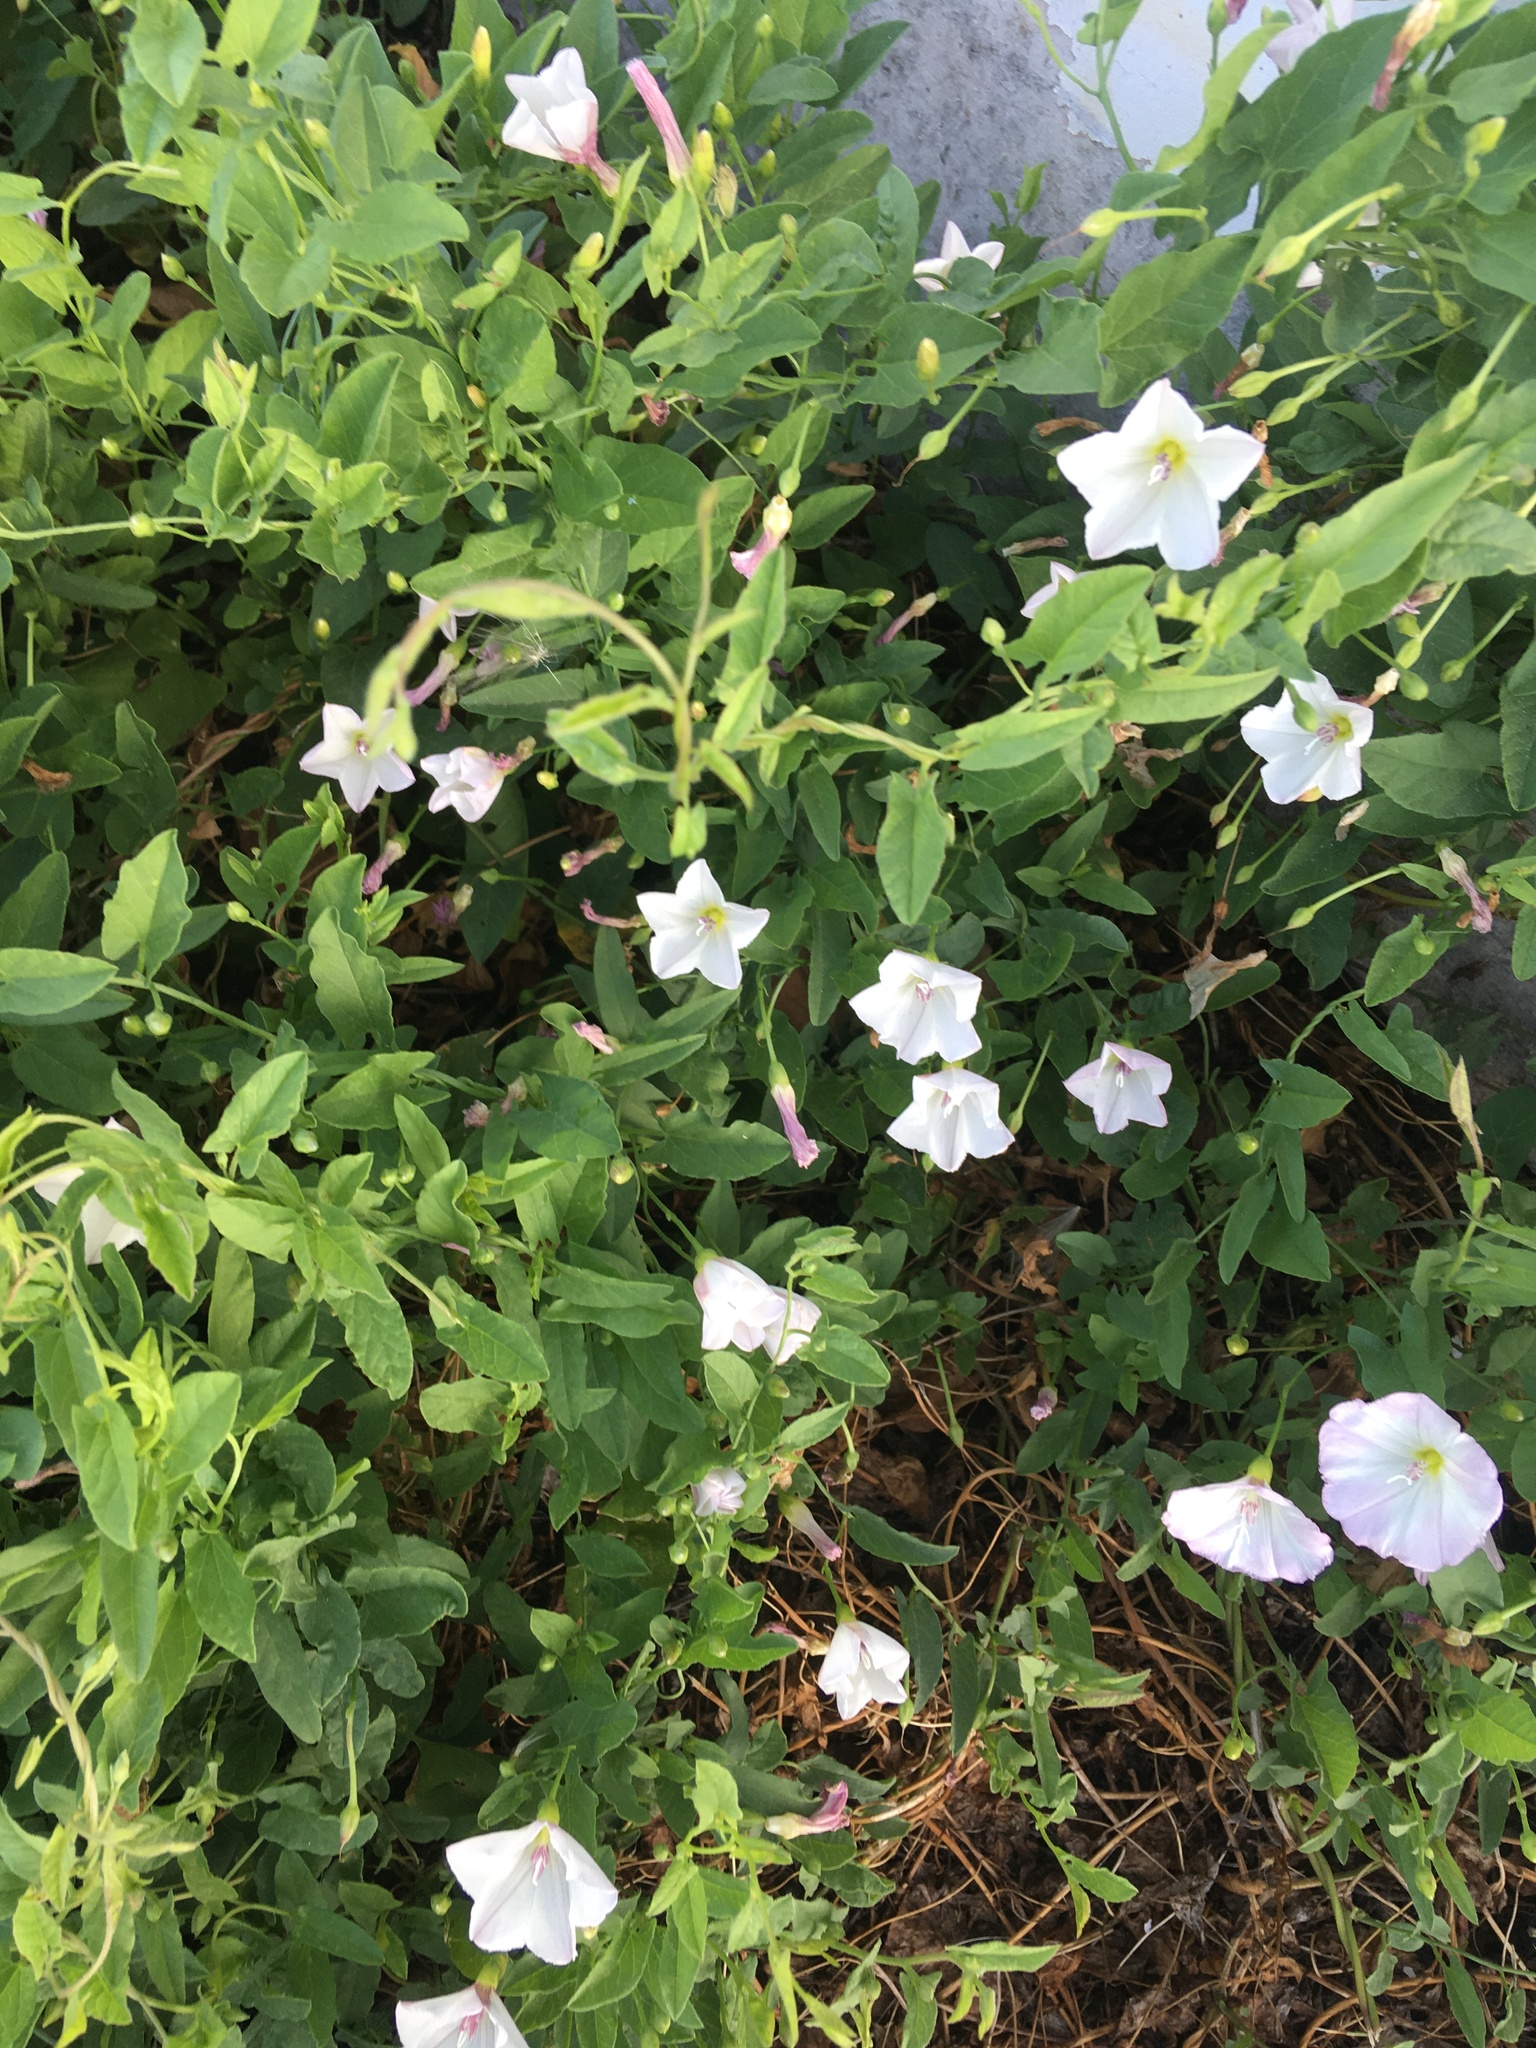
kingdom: Plantae
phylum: Tracheophyta
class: Magnoliopsida
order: Solanales
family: Convolvulaceae
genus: Convolvulus
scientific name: Convolvulus arvensis
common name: Field bindweed
